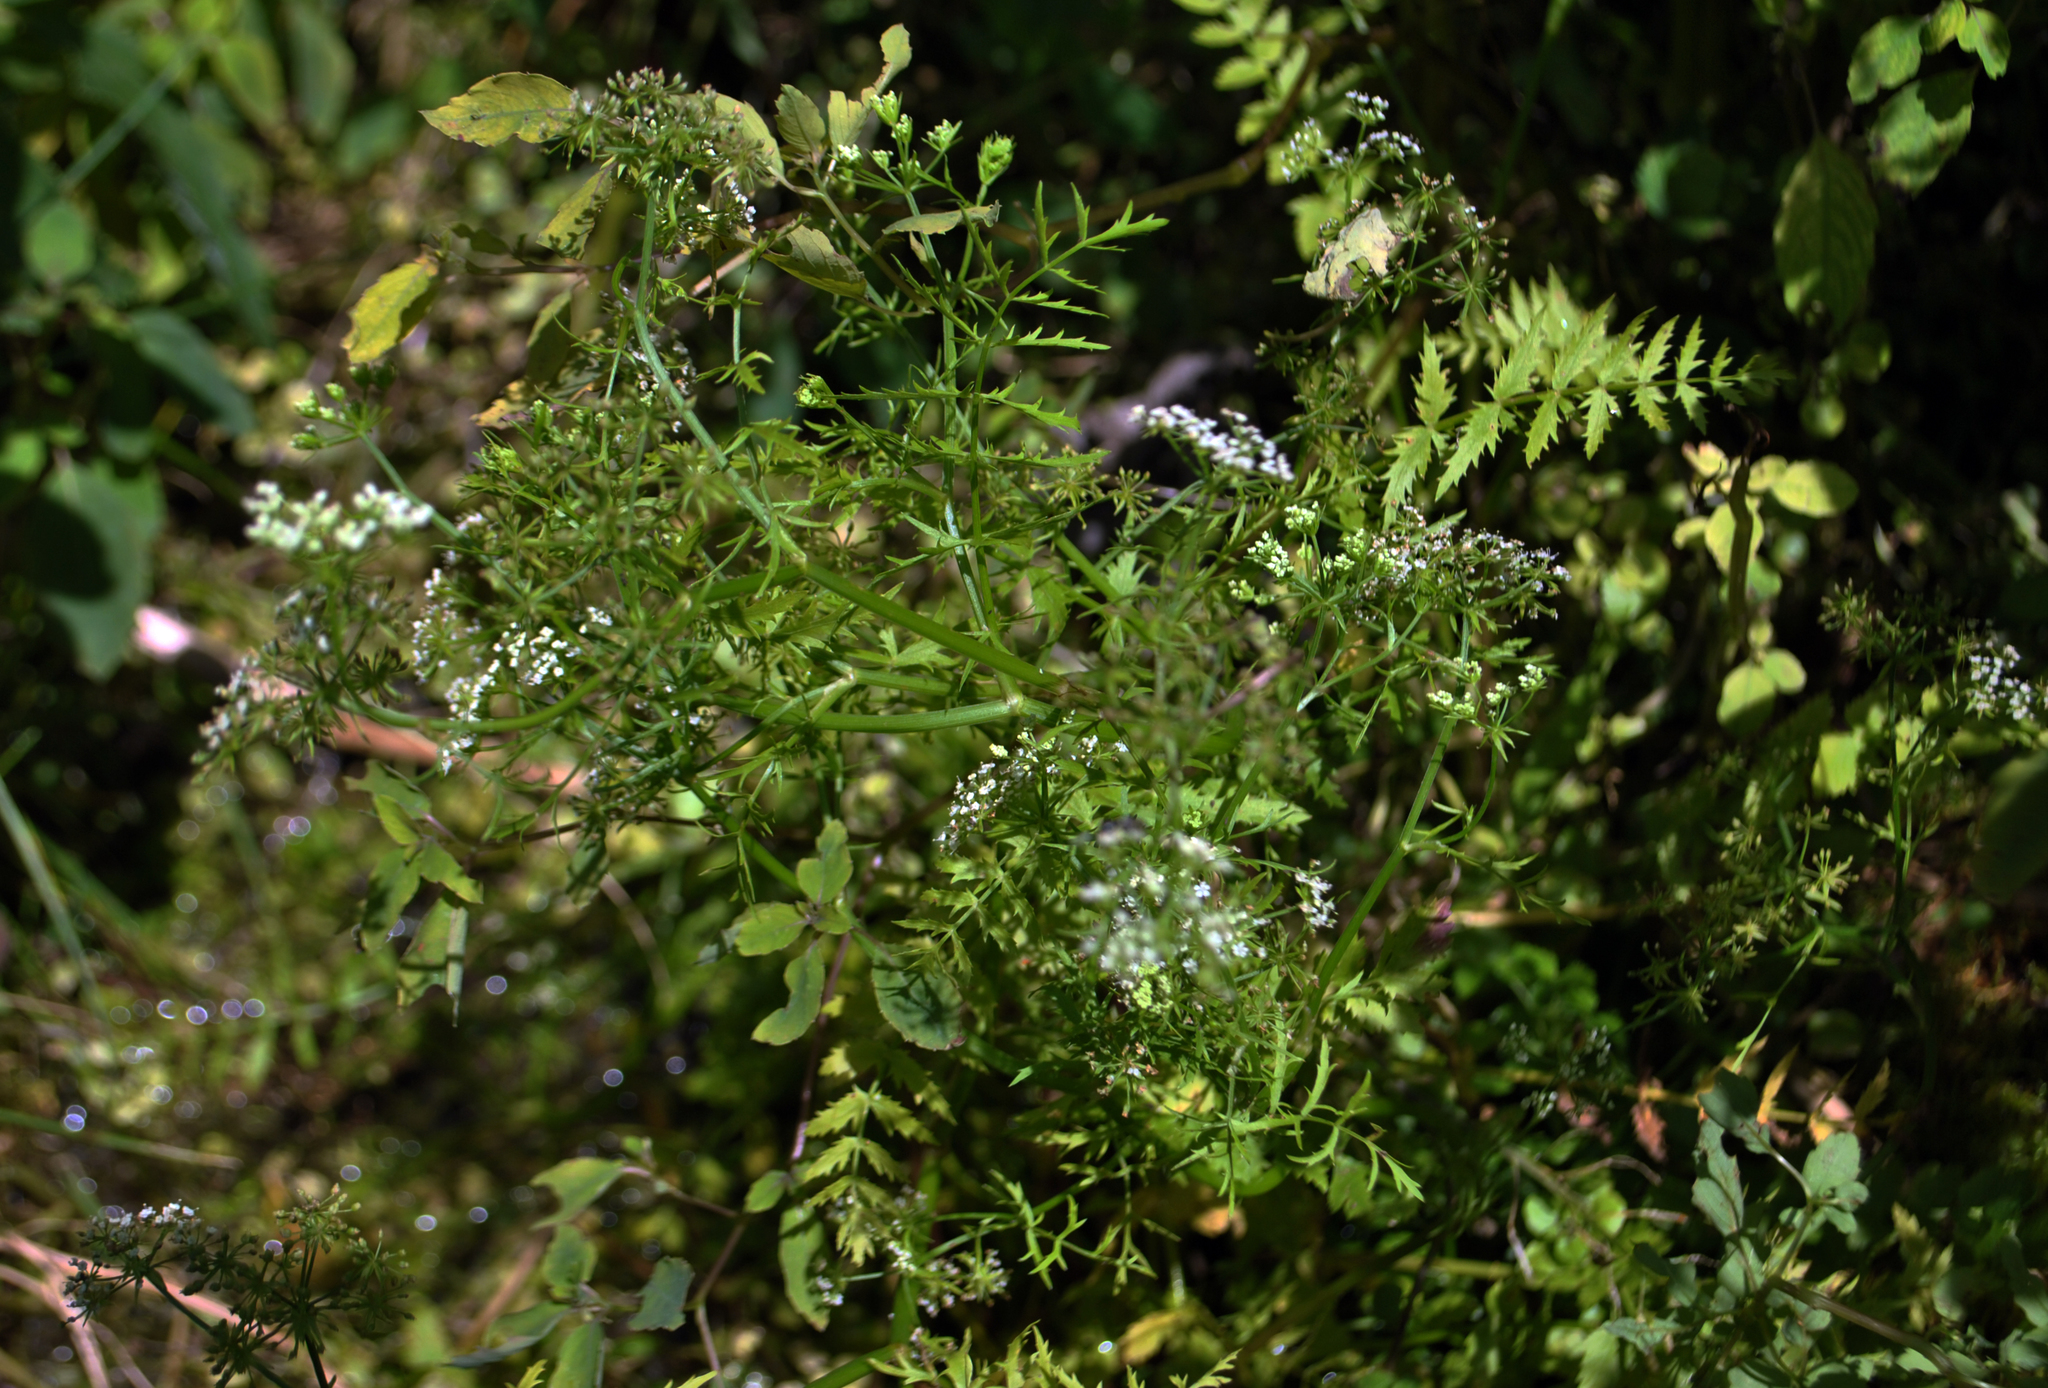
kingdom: Plantae
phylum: Tracheophyta
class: Magnoliopsida
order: Apiales
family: Apiaceae
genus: Berula
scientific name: Berula erecta
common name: Lesser water-parsnip
